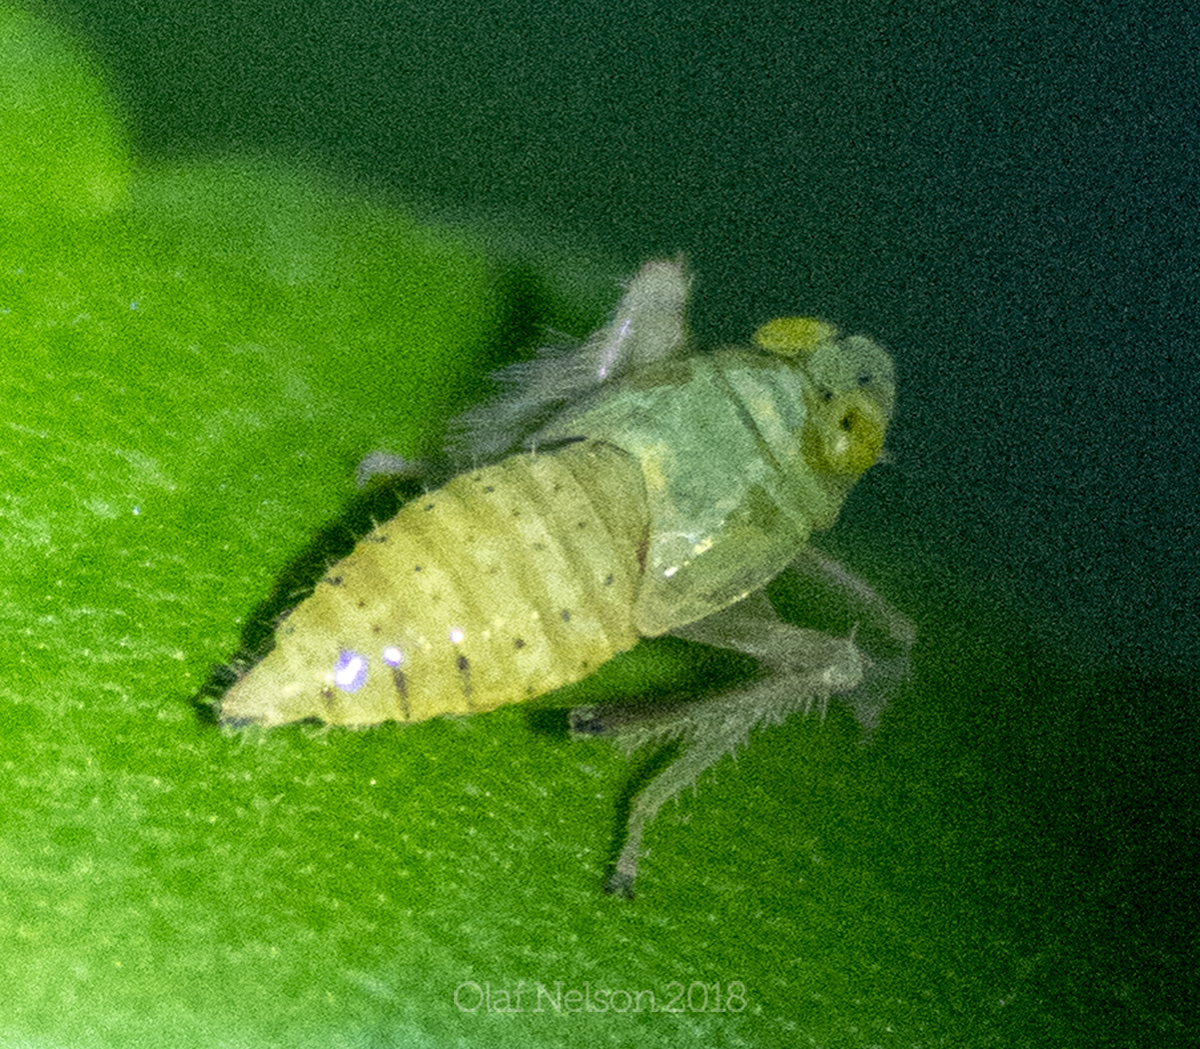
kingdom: Animalia
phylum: Arthropoda
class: Insecta
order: Hemiptera
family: Cicadellidae
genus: Jikradia
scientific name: Jikradia olitoria
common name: Coppery leafhopper
